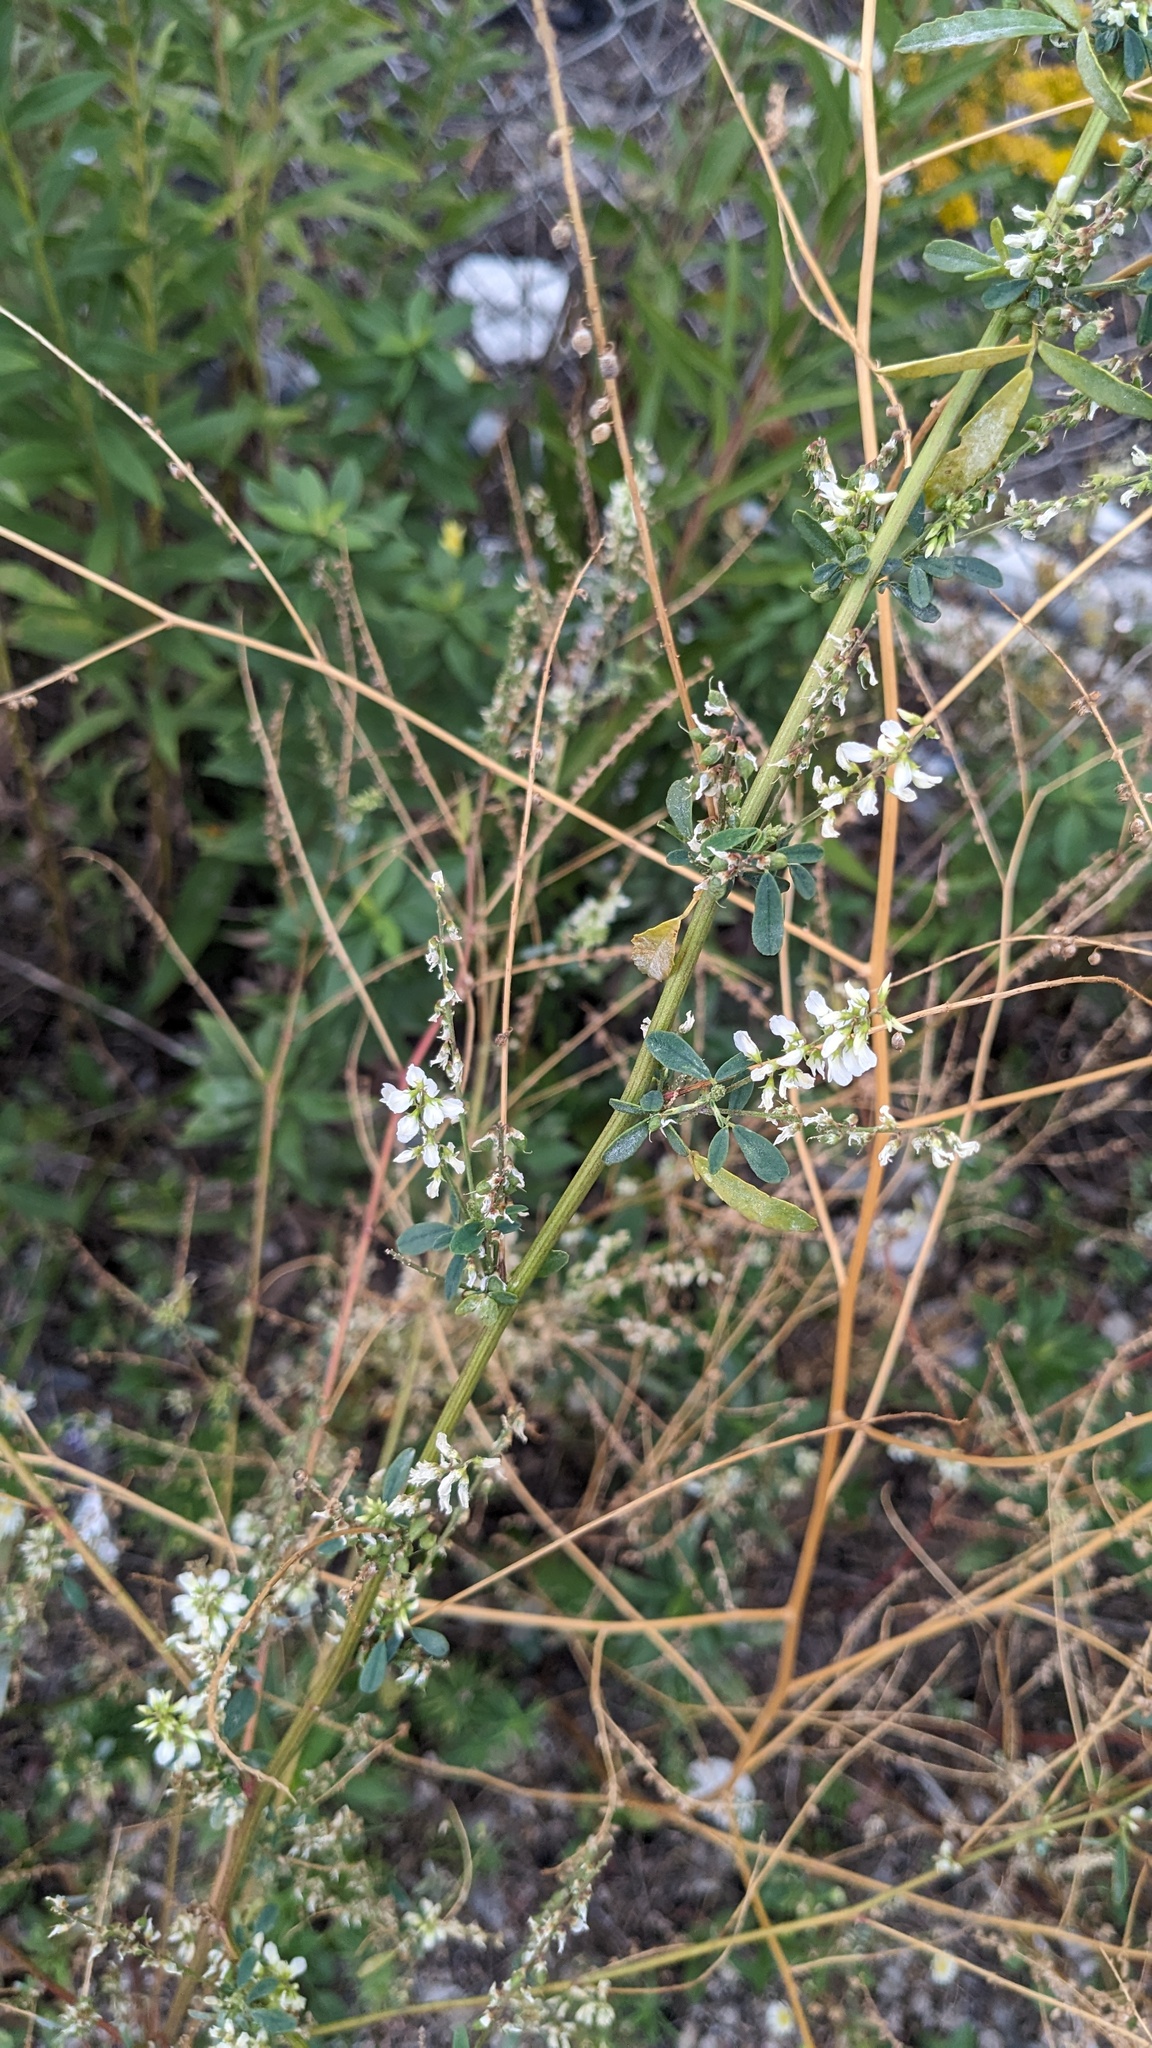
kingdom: Plantae
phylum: Tracheophyta
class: Magnoliopsida
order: Fabales
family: Fabaceae
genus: Melilotus
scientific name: Melilotus albus
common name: White melilot
